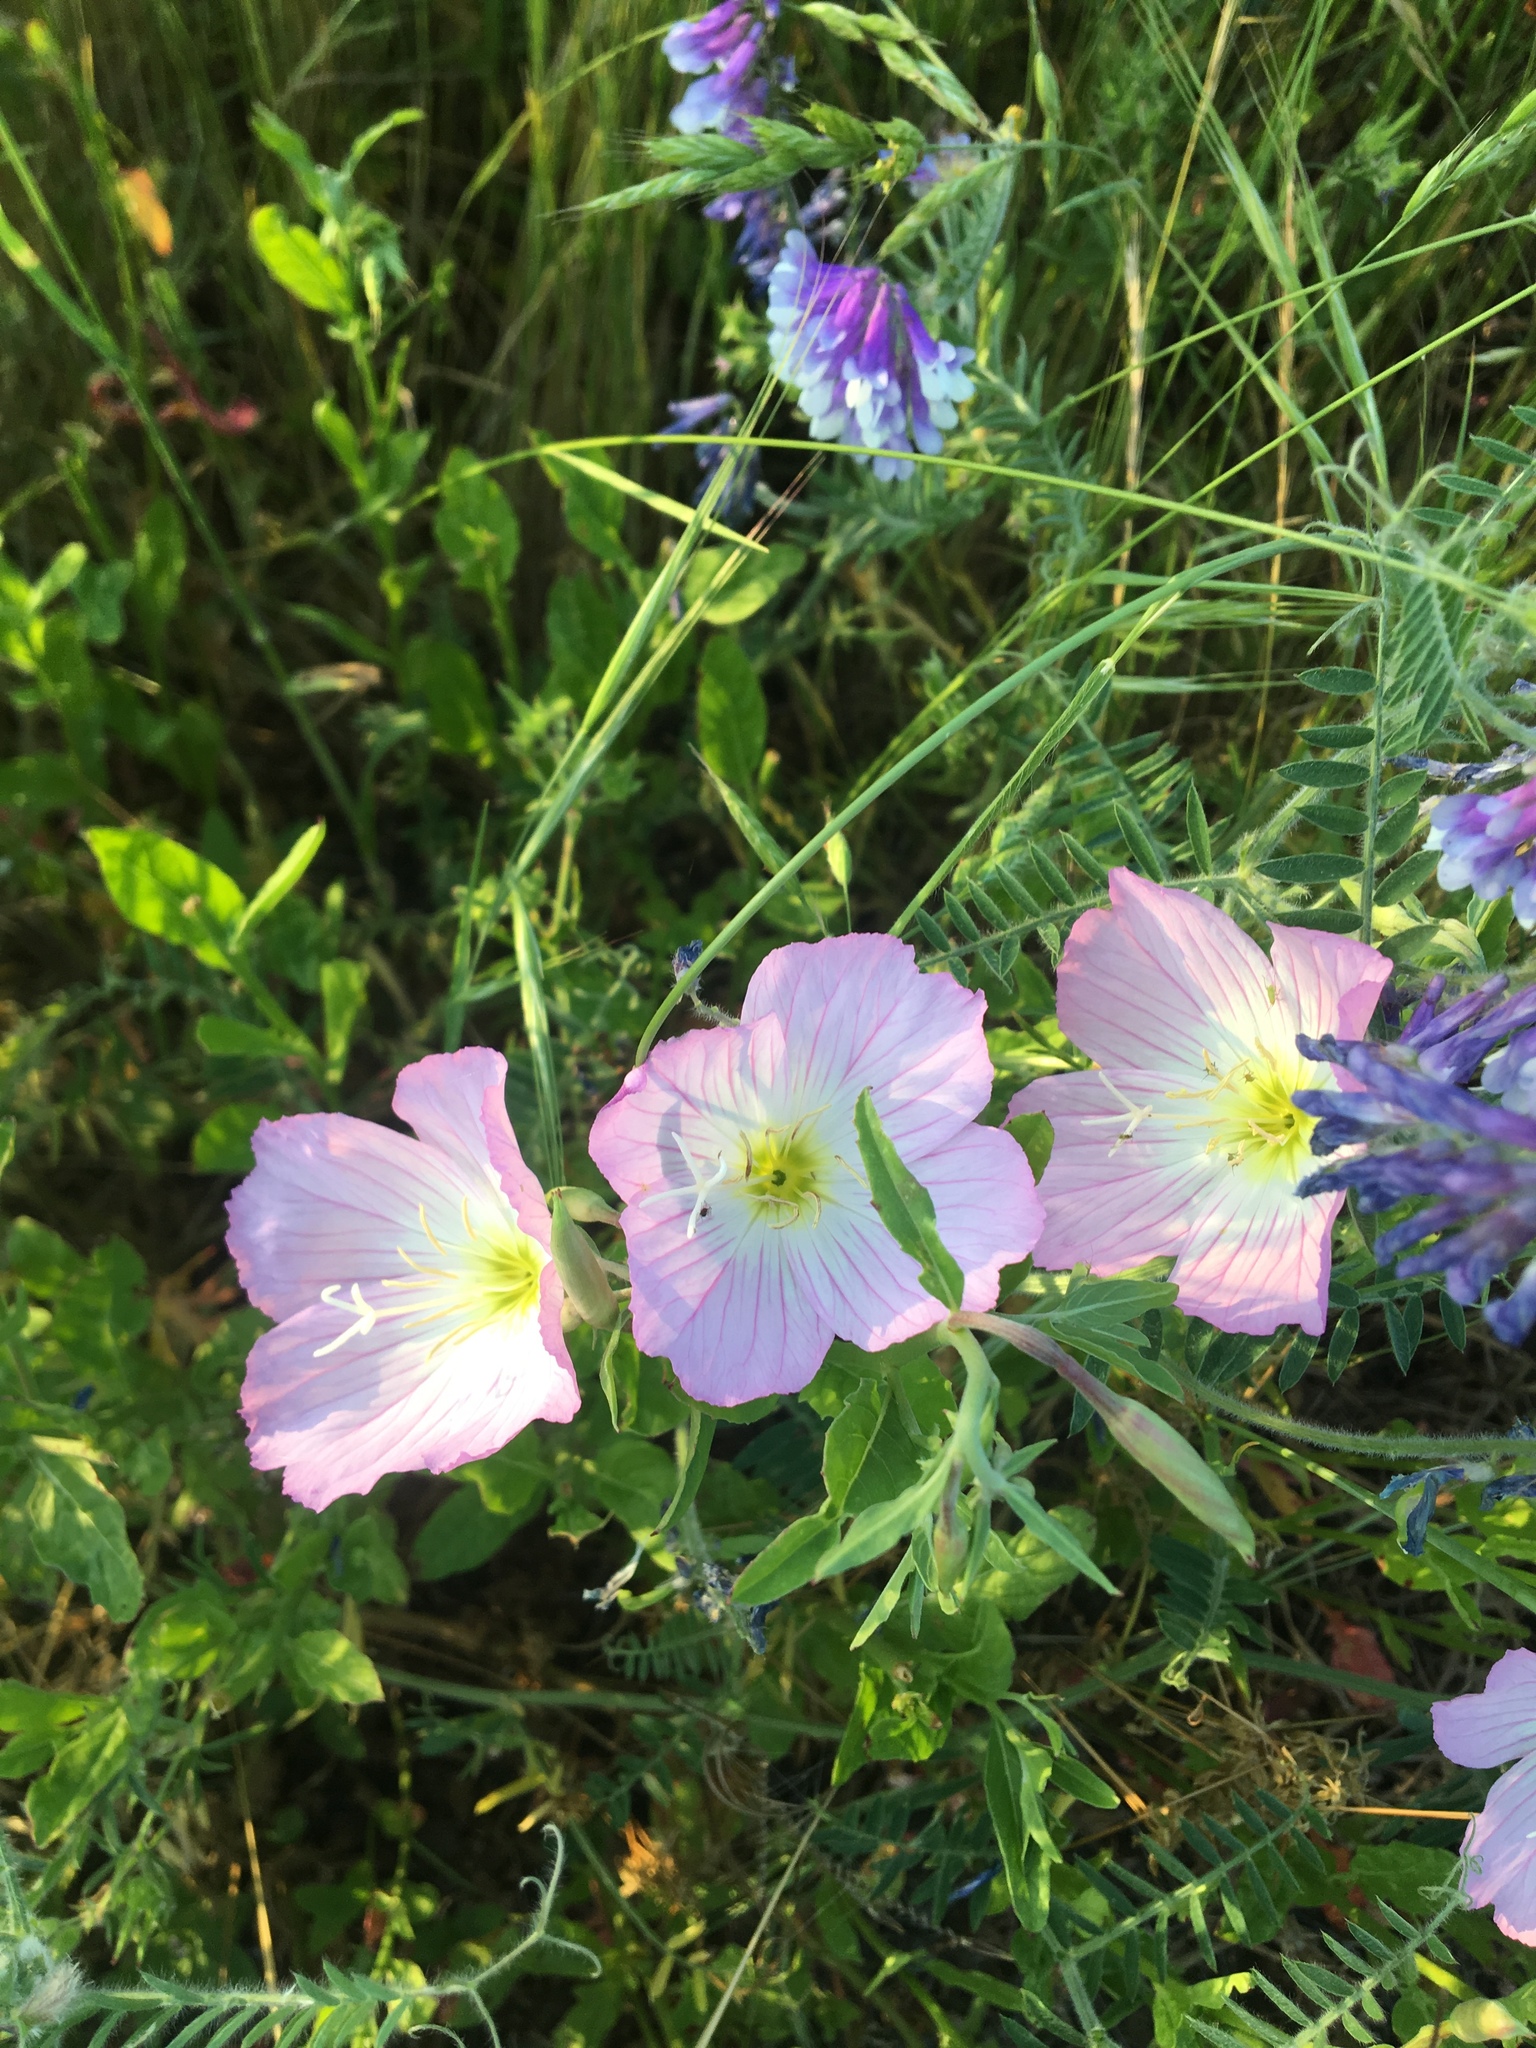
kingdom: Plantae
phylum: Tracheophyta
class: Magnoliopsida
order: Myrtales
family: Onagraceae
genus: Oenothera
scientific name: Oenothera speciosa
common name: White evening-primrose
